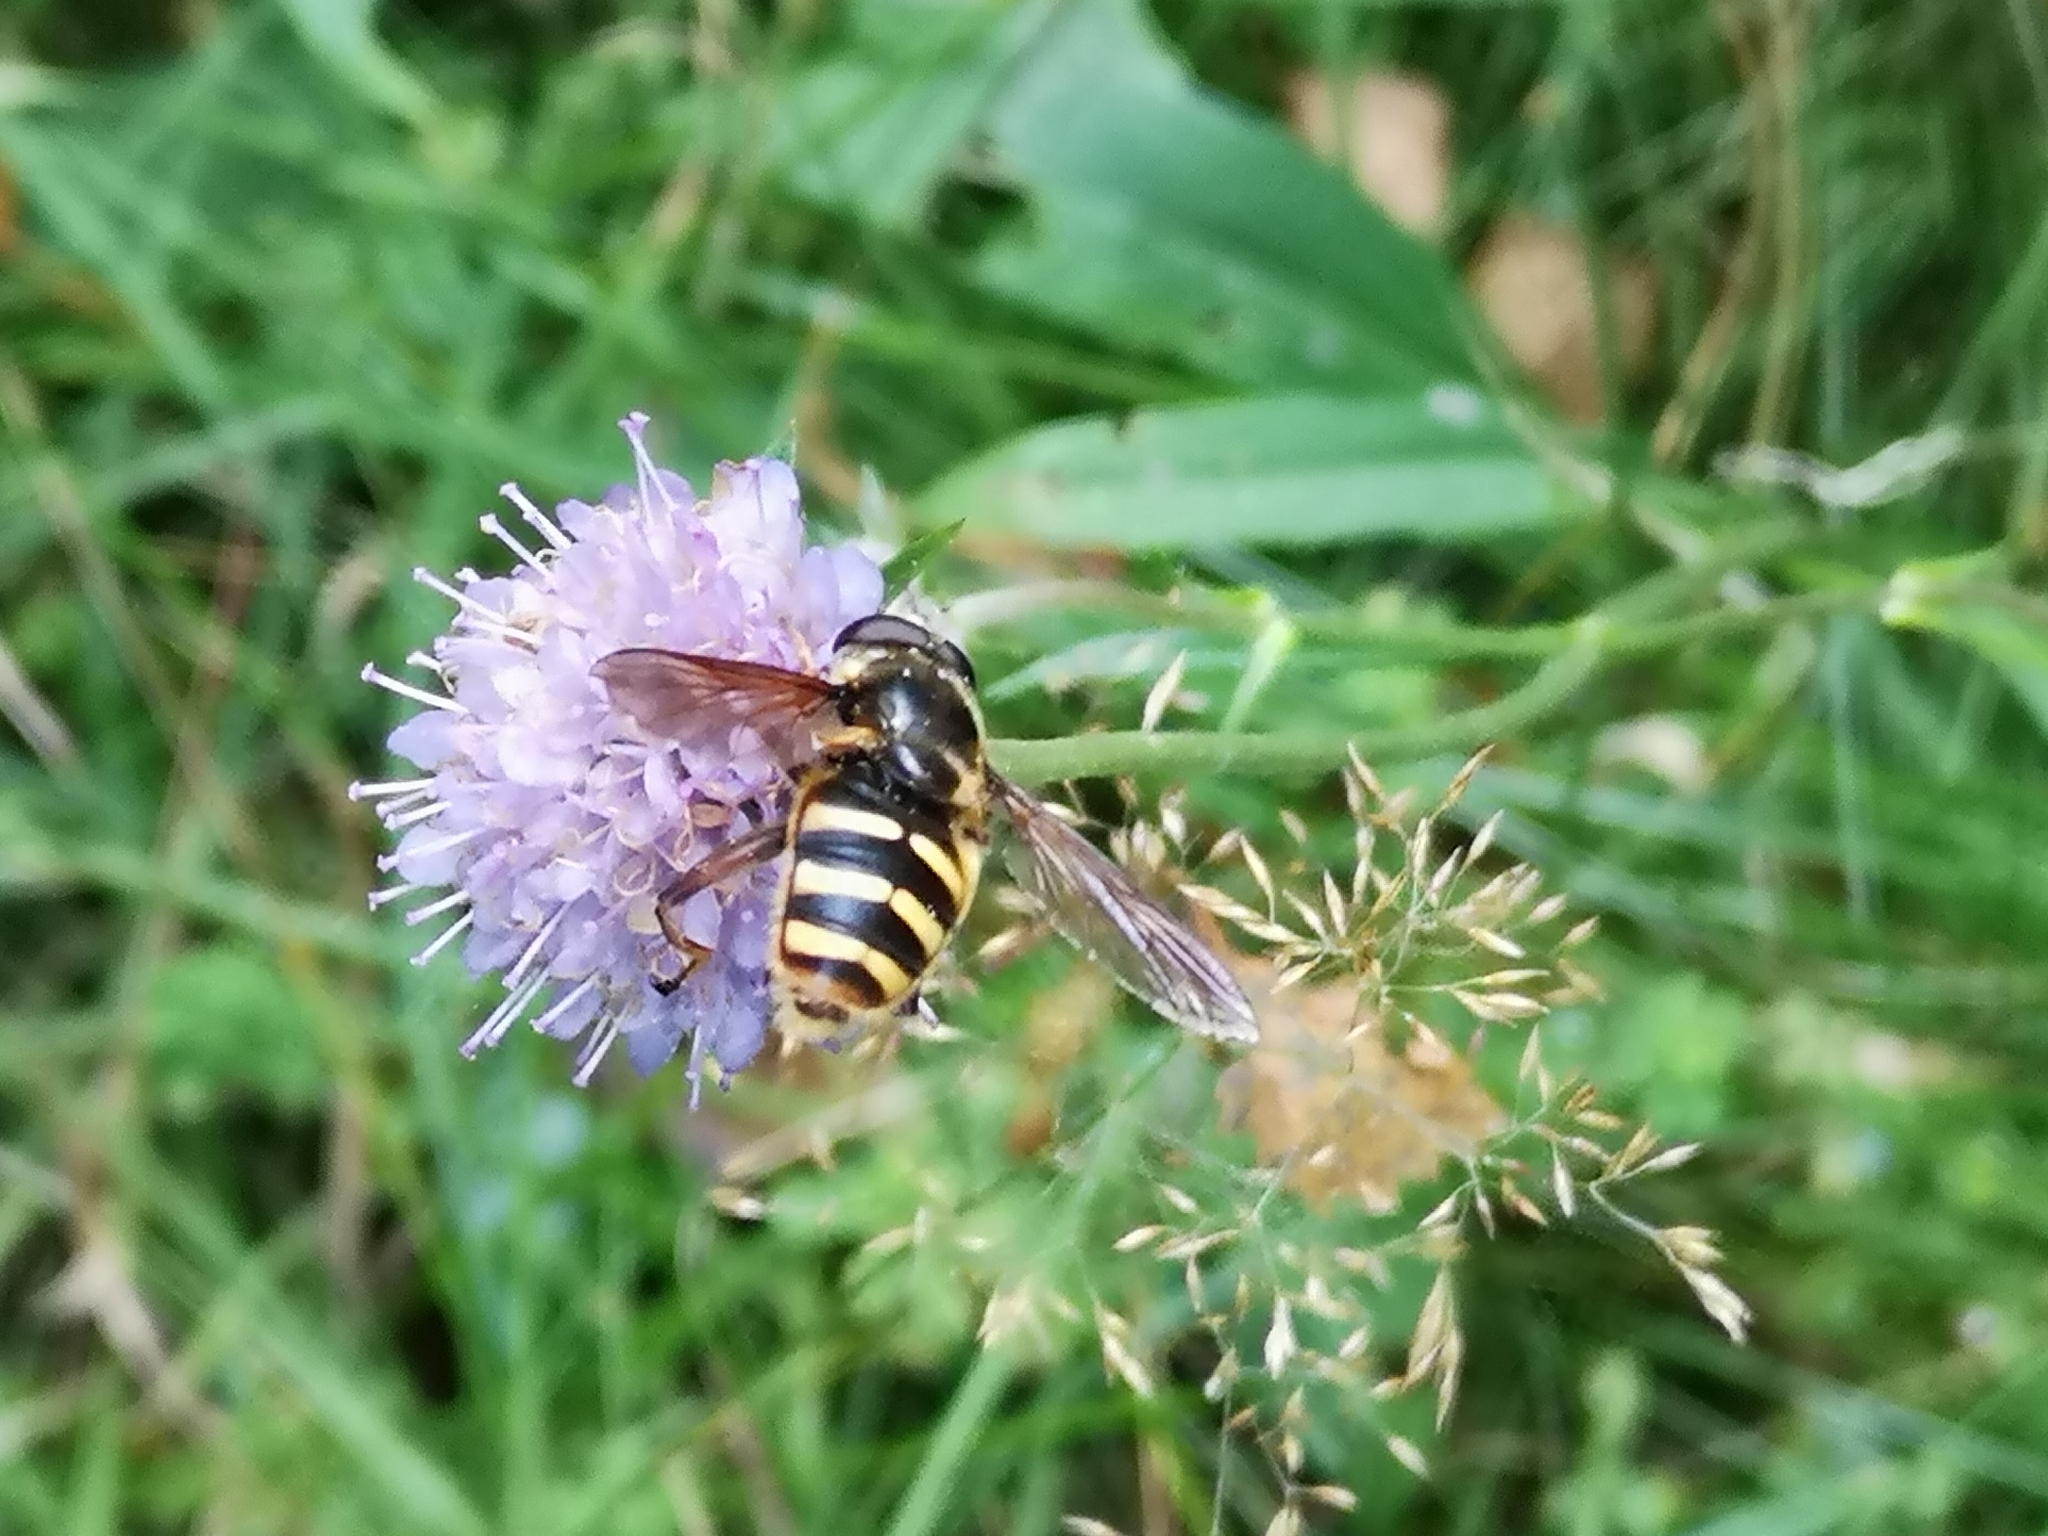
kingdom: Animalia
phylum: Arthropoda
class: Insecta
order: Diptera
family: Syrphidae
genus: Sericomyia
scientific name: Sericomyia silentis
